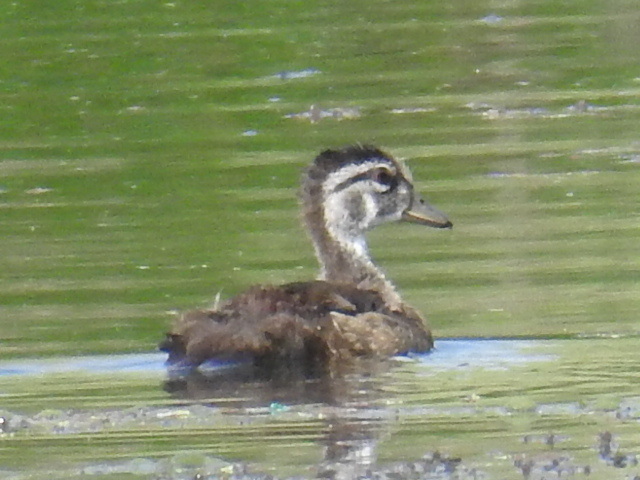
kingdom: Animalia
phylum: Chordata
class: Aves
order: Anseriformes
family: Anatidae
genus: Aix
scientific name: Aix sponsa
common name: Wood duck
